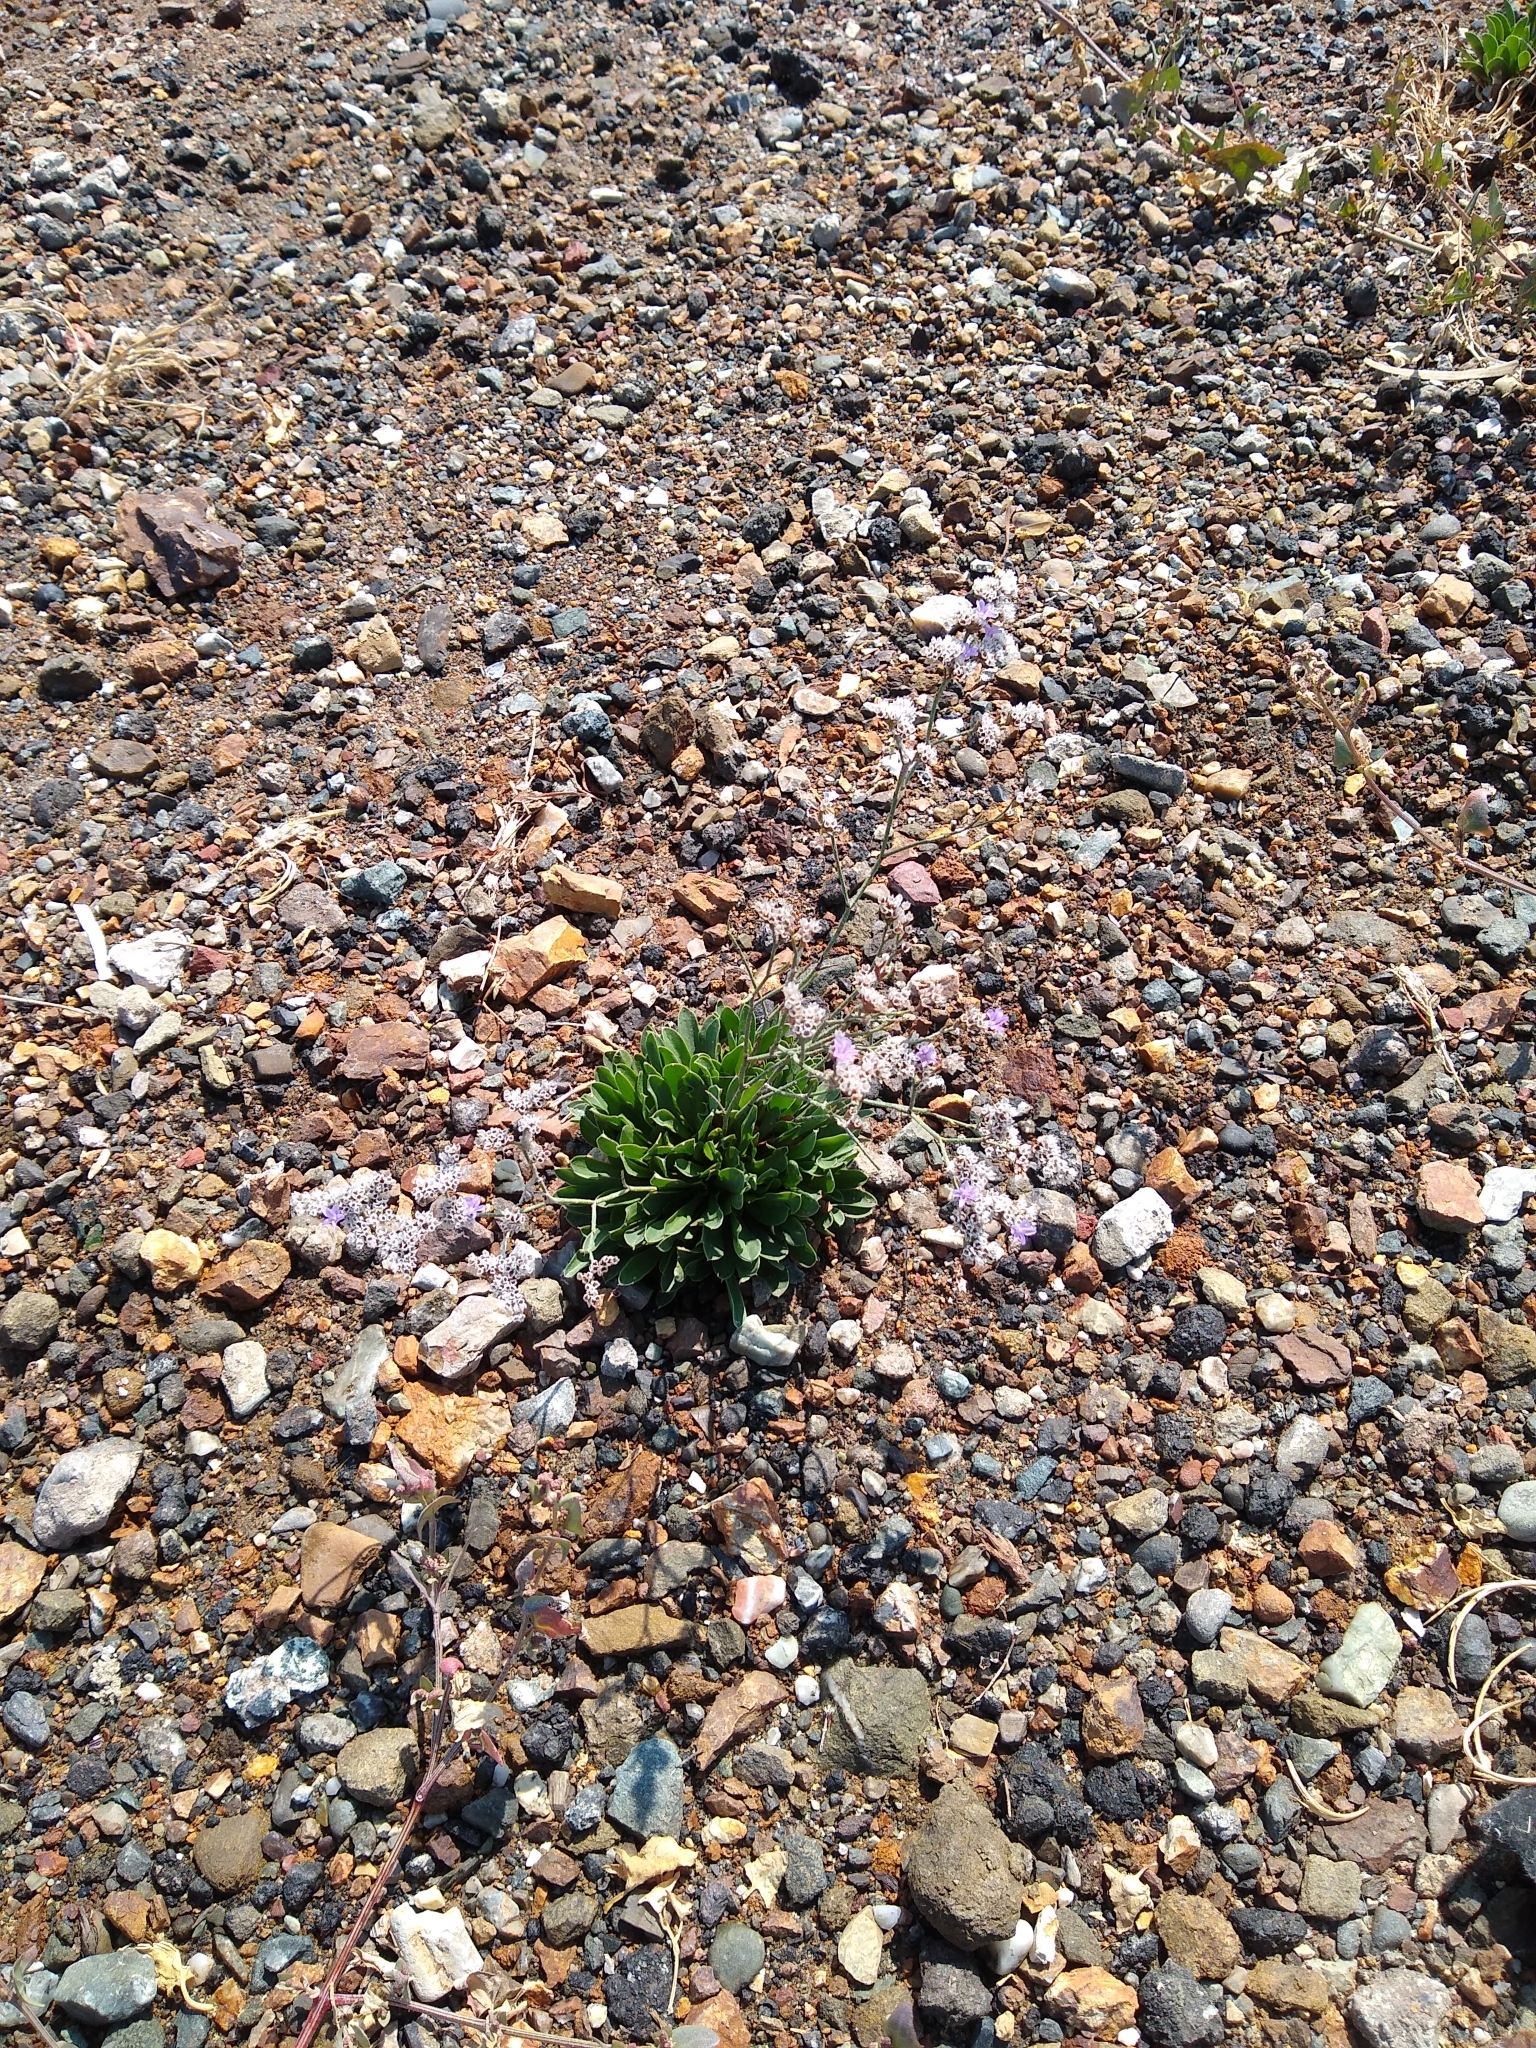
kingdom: Plantae
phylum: Tracheophyta
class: Magnoliopsida
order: Caryophyllales
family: Plumbaginaceae
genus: Limonium
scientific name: Limonium ramosissimum
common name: Algerian sea lavender
